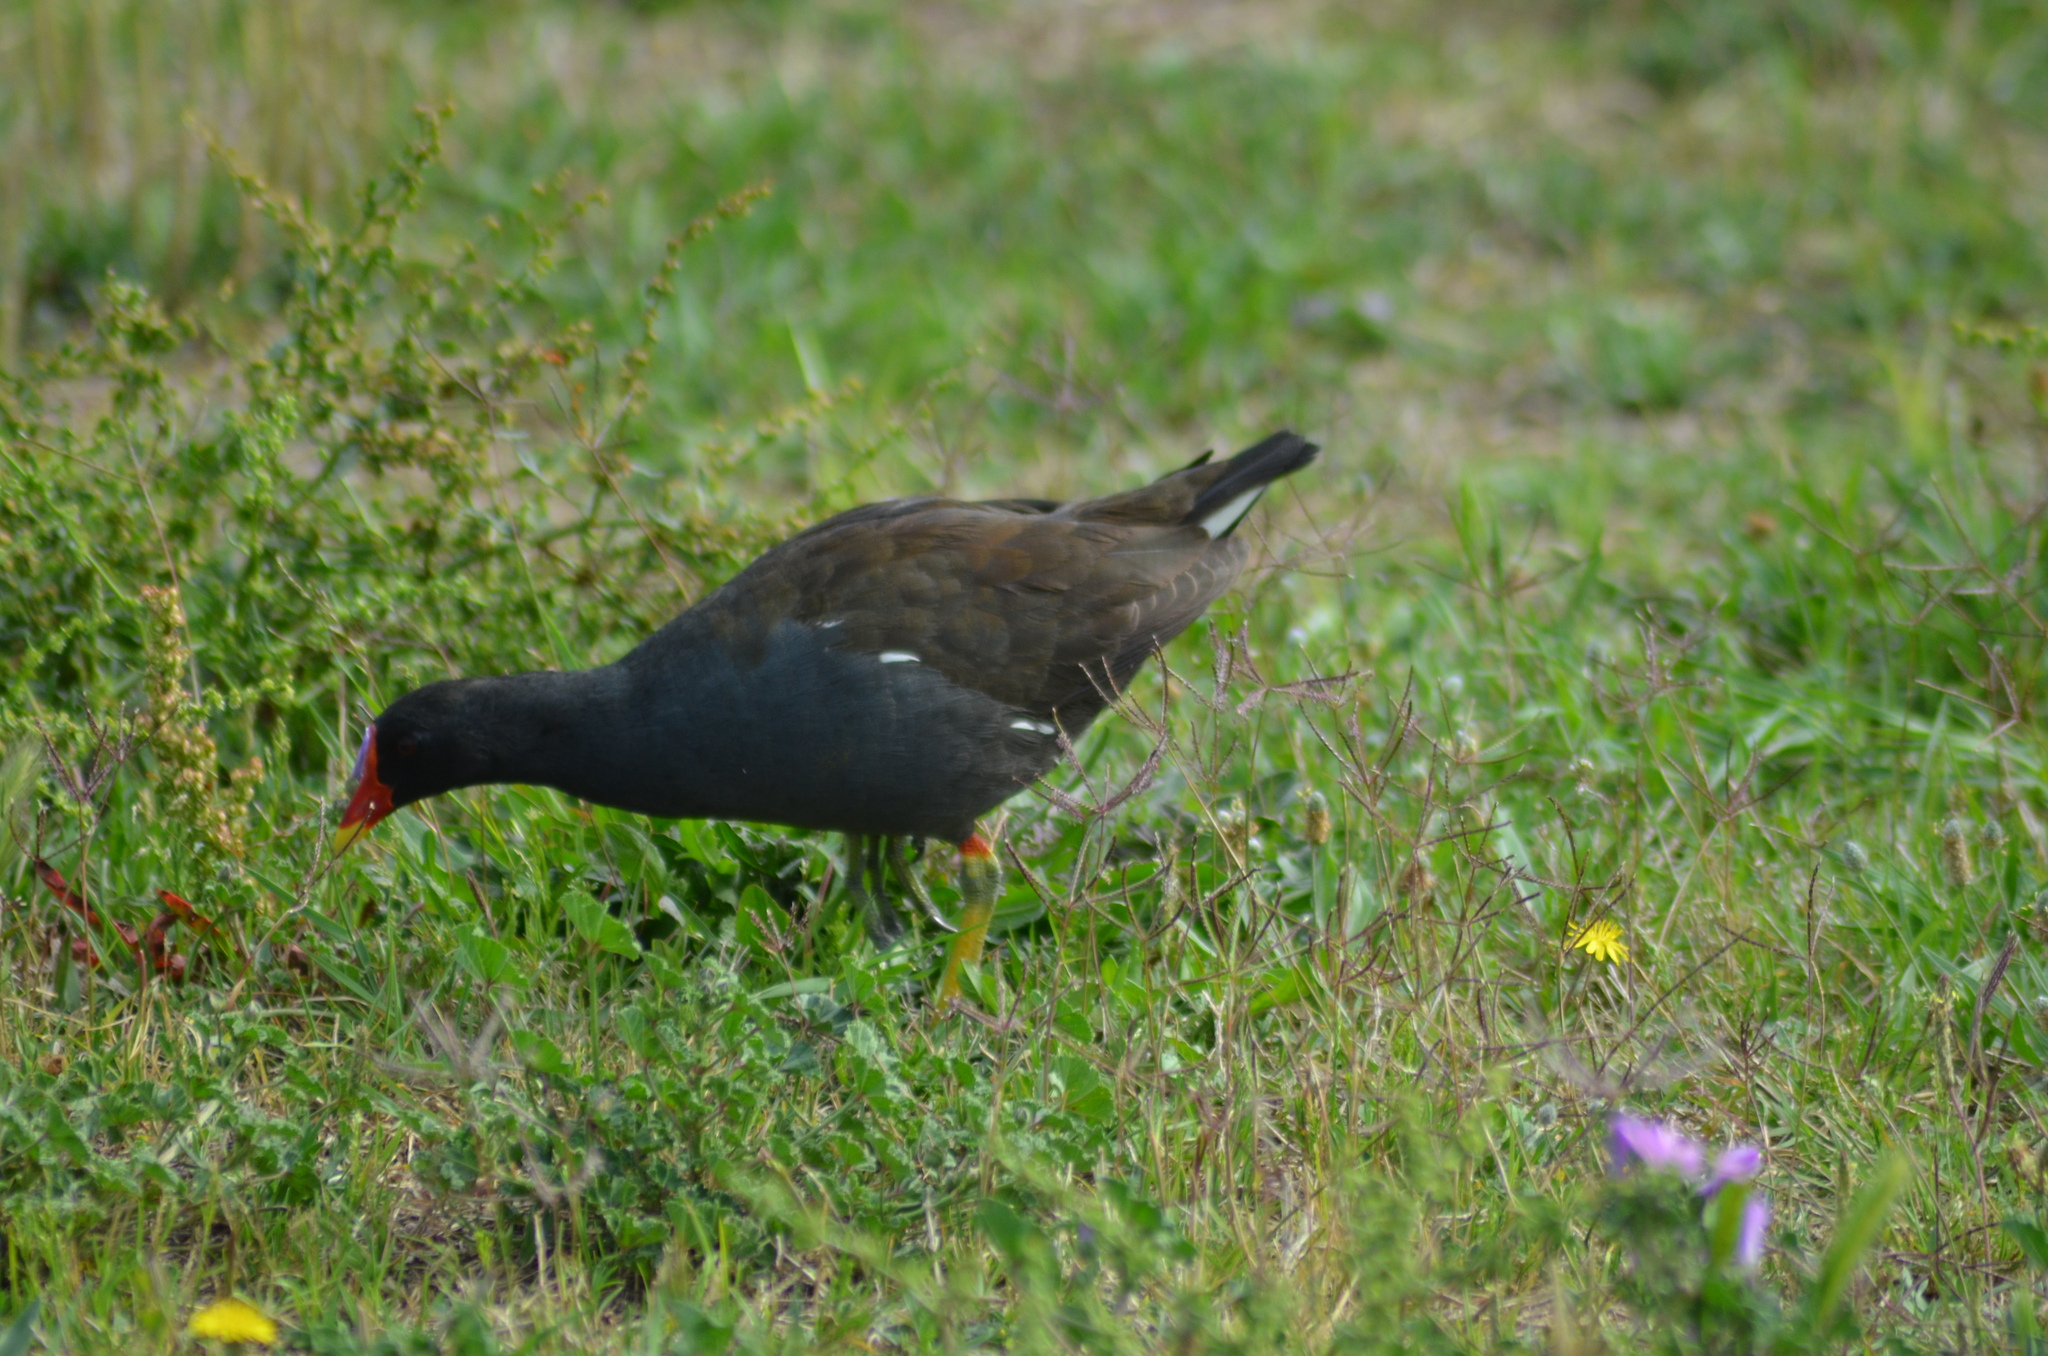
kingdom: Animalia
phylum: Chordata
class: Aves
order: Gruiformes
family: Rallidae
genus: Gallinula
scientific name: Gallinula chloropus
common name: Common moorhen
